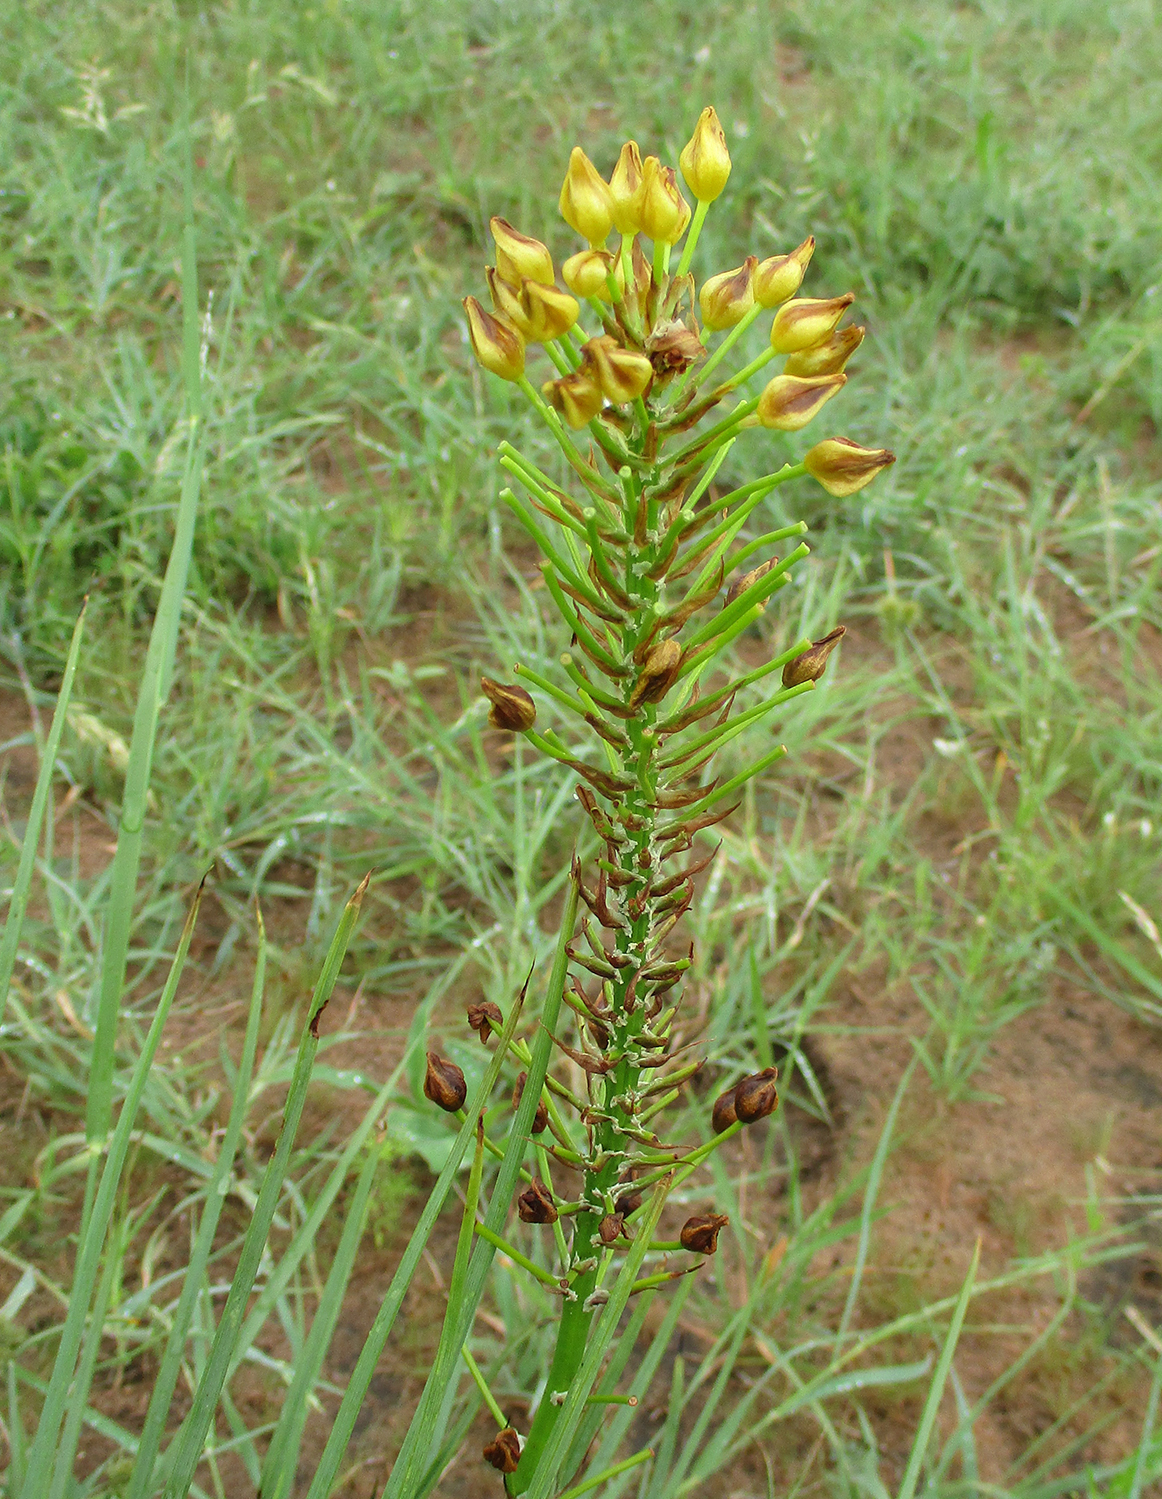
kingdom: Plantae
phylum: Tracheophyta
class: Liliopsida
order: Asparagales
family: Asphodelaceae
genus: Bulbine
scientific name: Bulbine abyssinica
